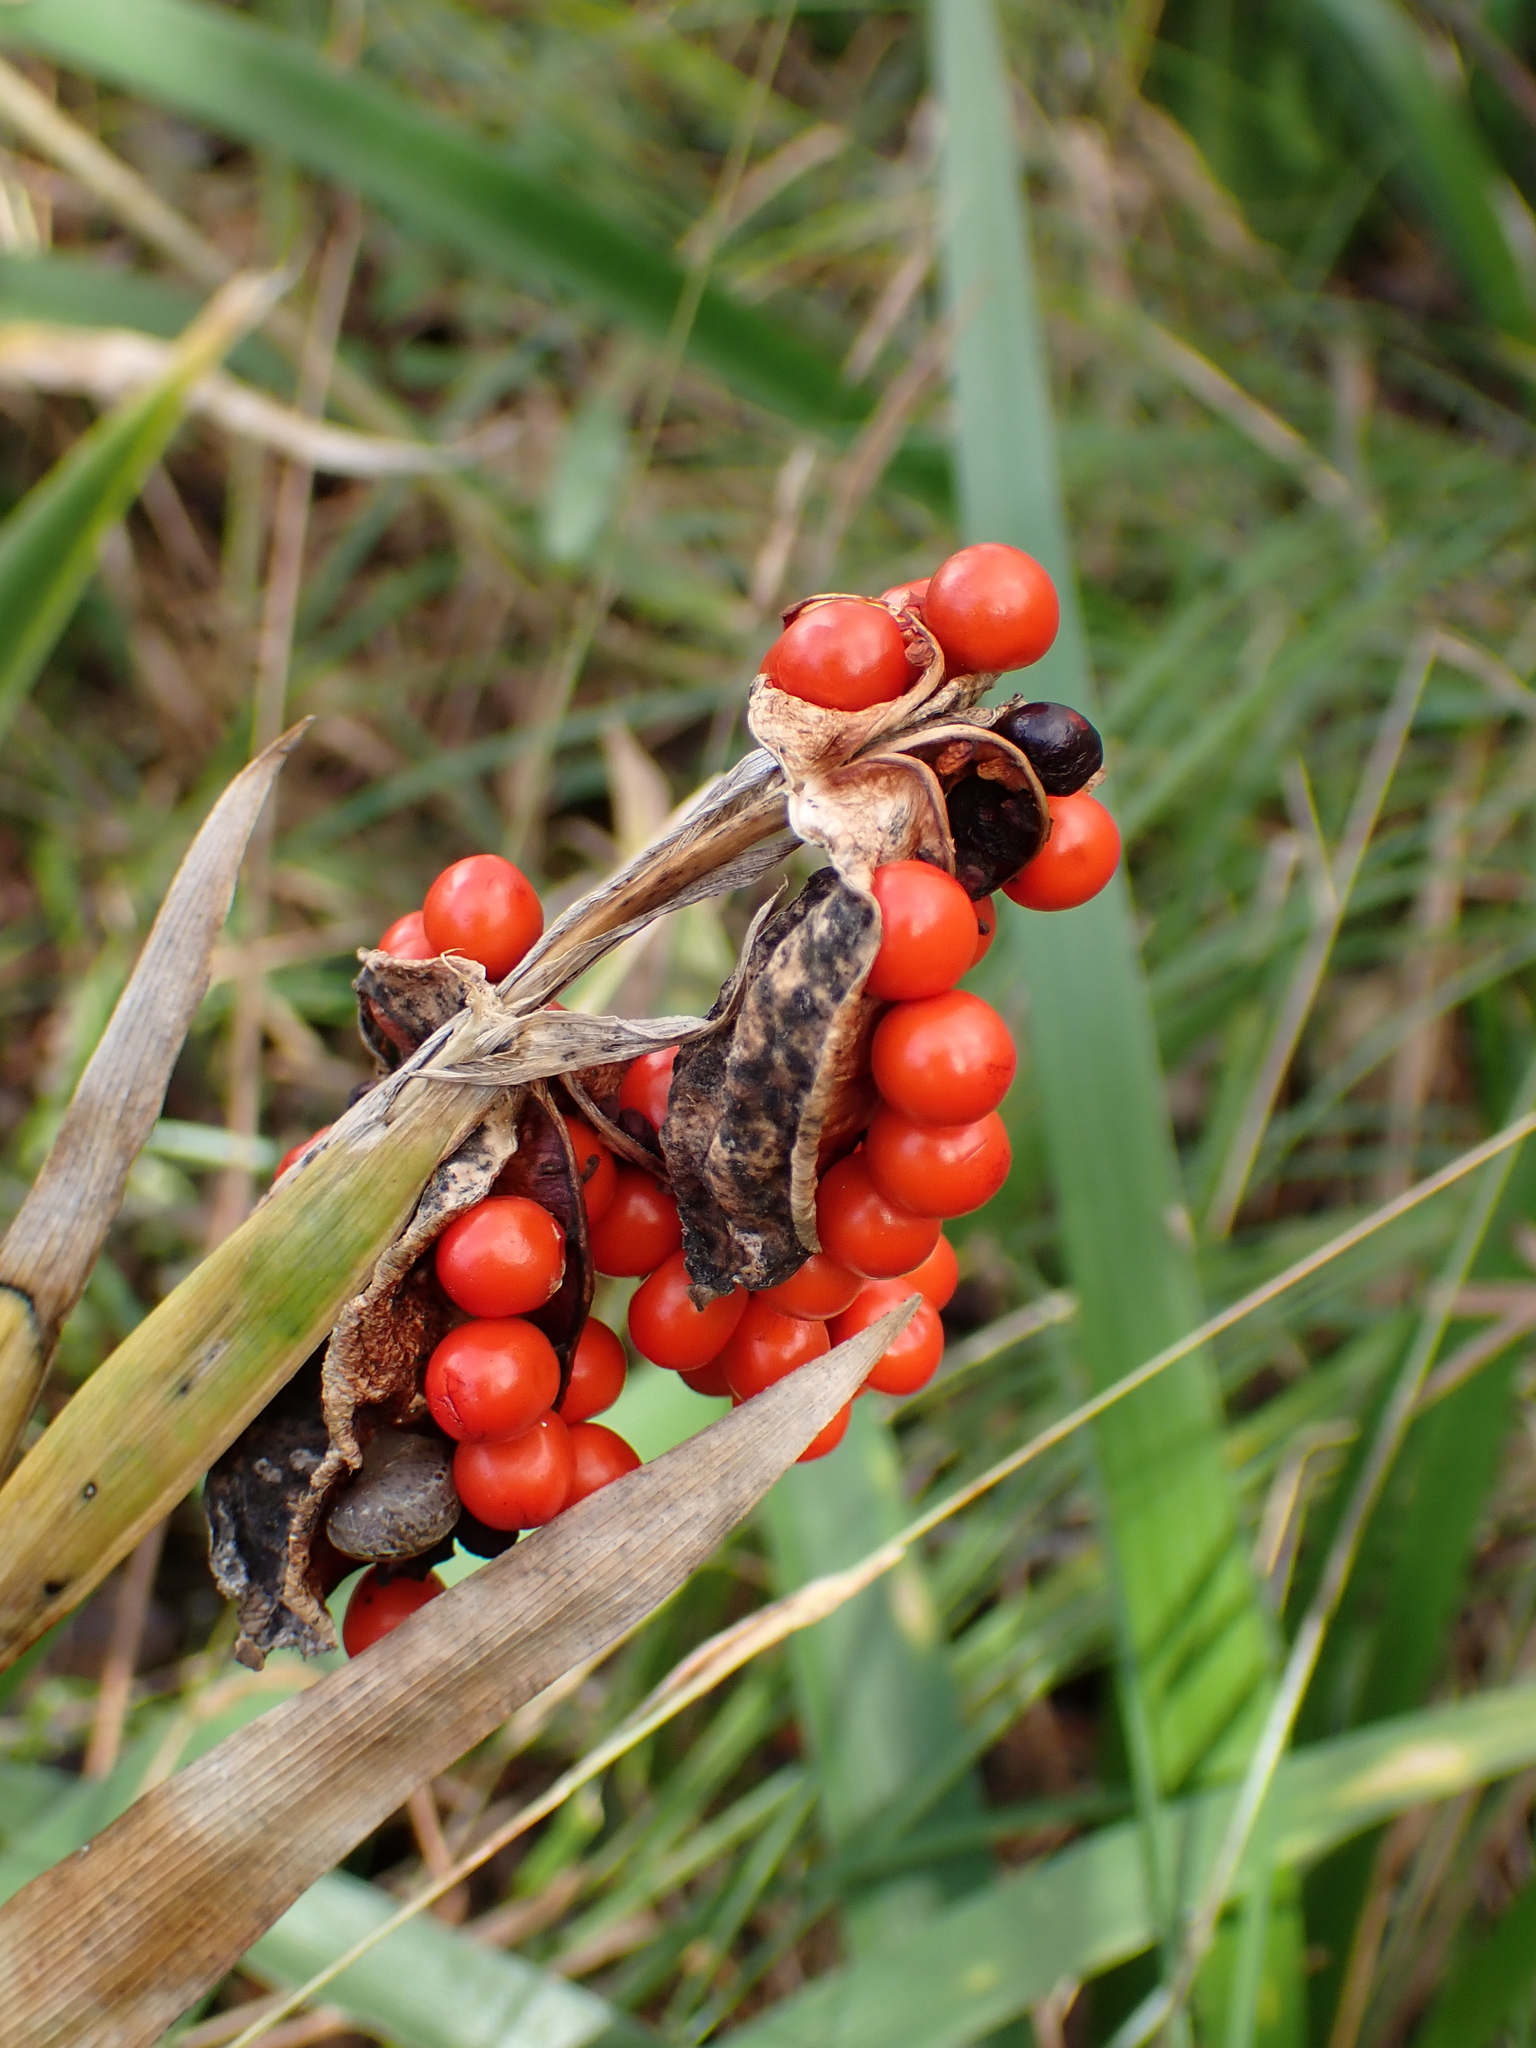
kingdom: Plantae
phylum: Tracheophyta
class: Liliopsida
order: Asparagales
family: Iridaceae
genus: Iris
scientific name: Iris foetidissima
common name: Stinking iris
